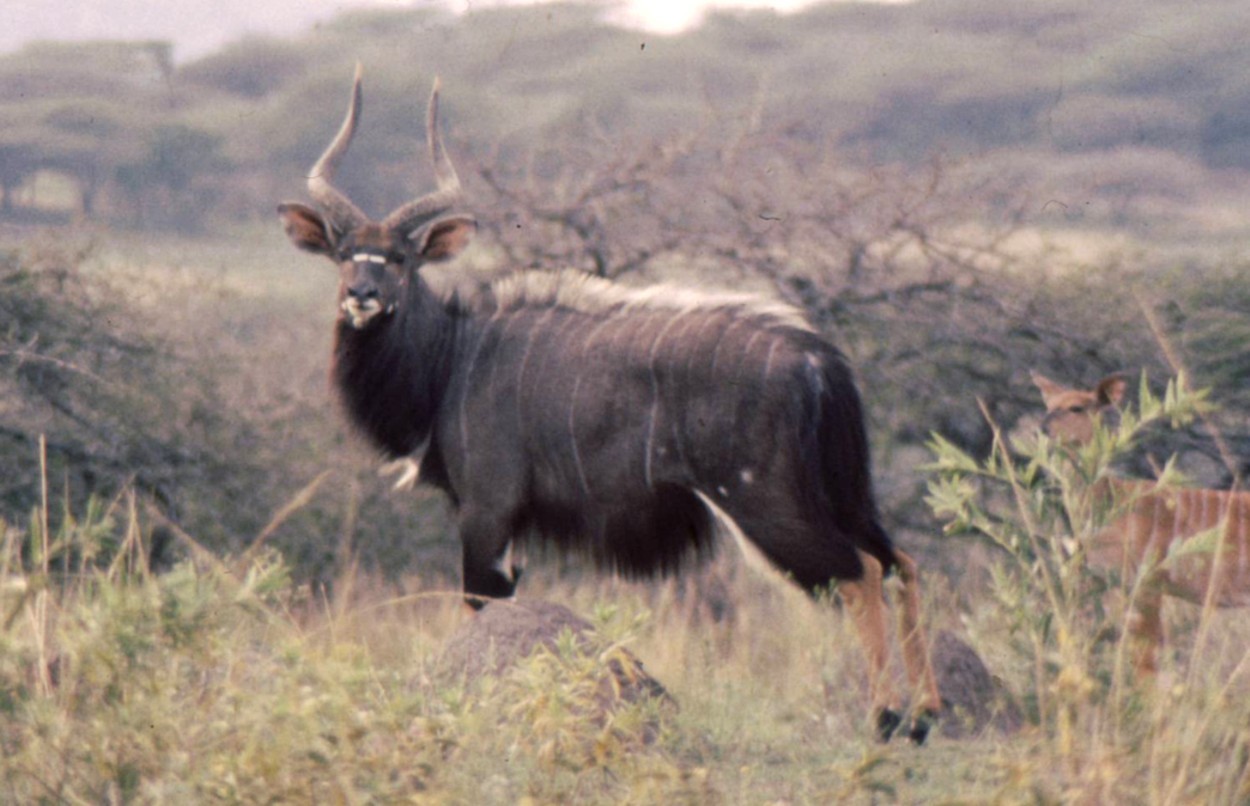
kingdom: Animalia
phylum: Chordata
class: Mammalia
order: Artiodactyla
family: Bovidae
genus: Tragelaphus
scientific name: Tragelaphus angasii
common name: Nyala
